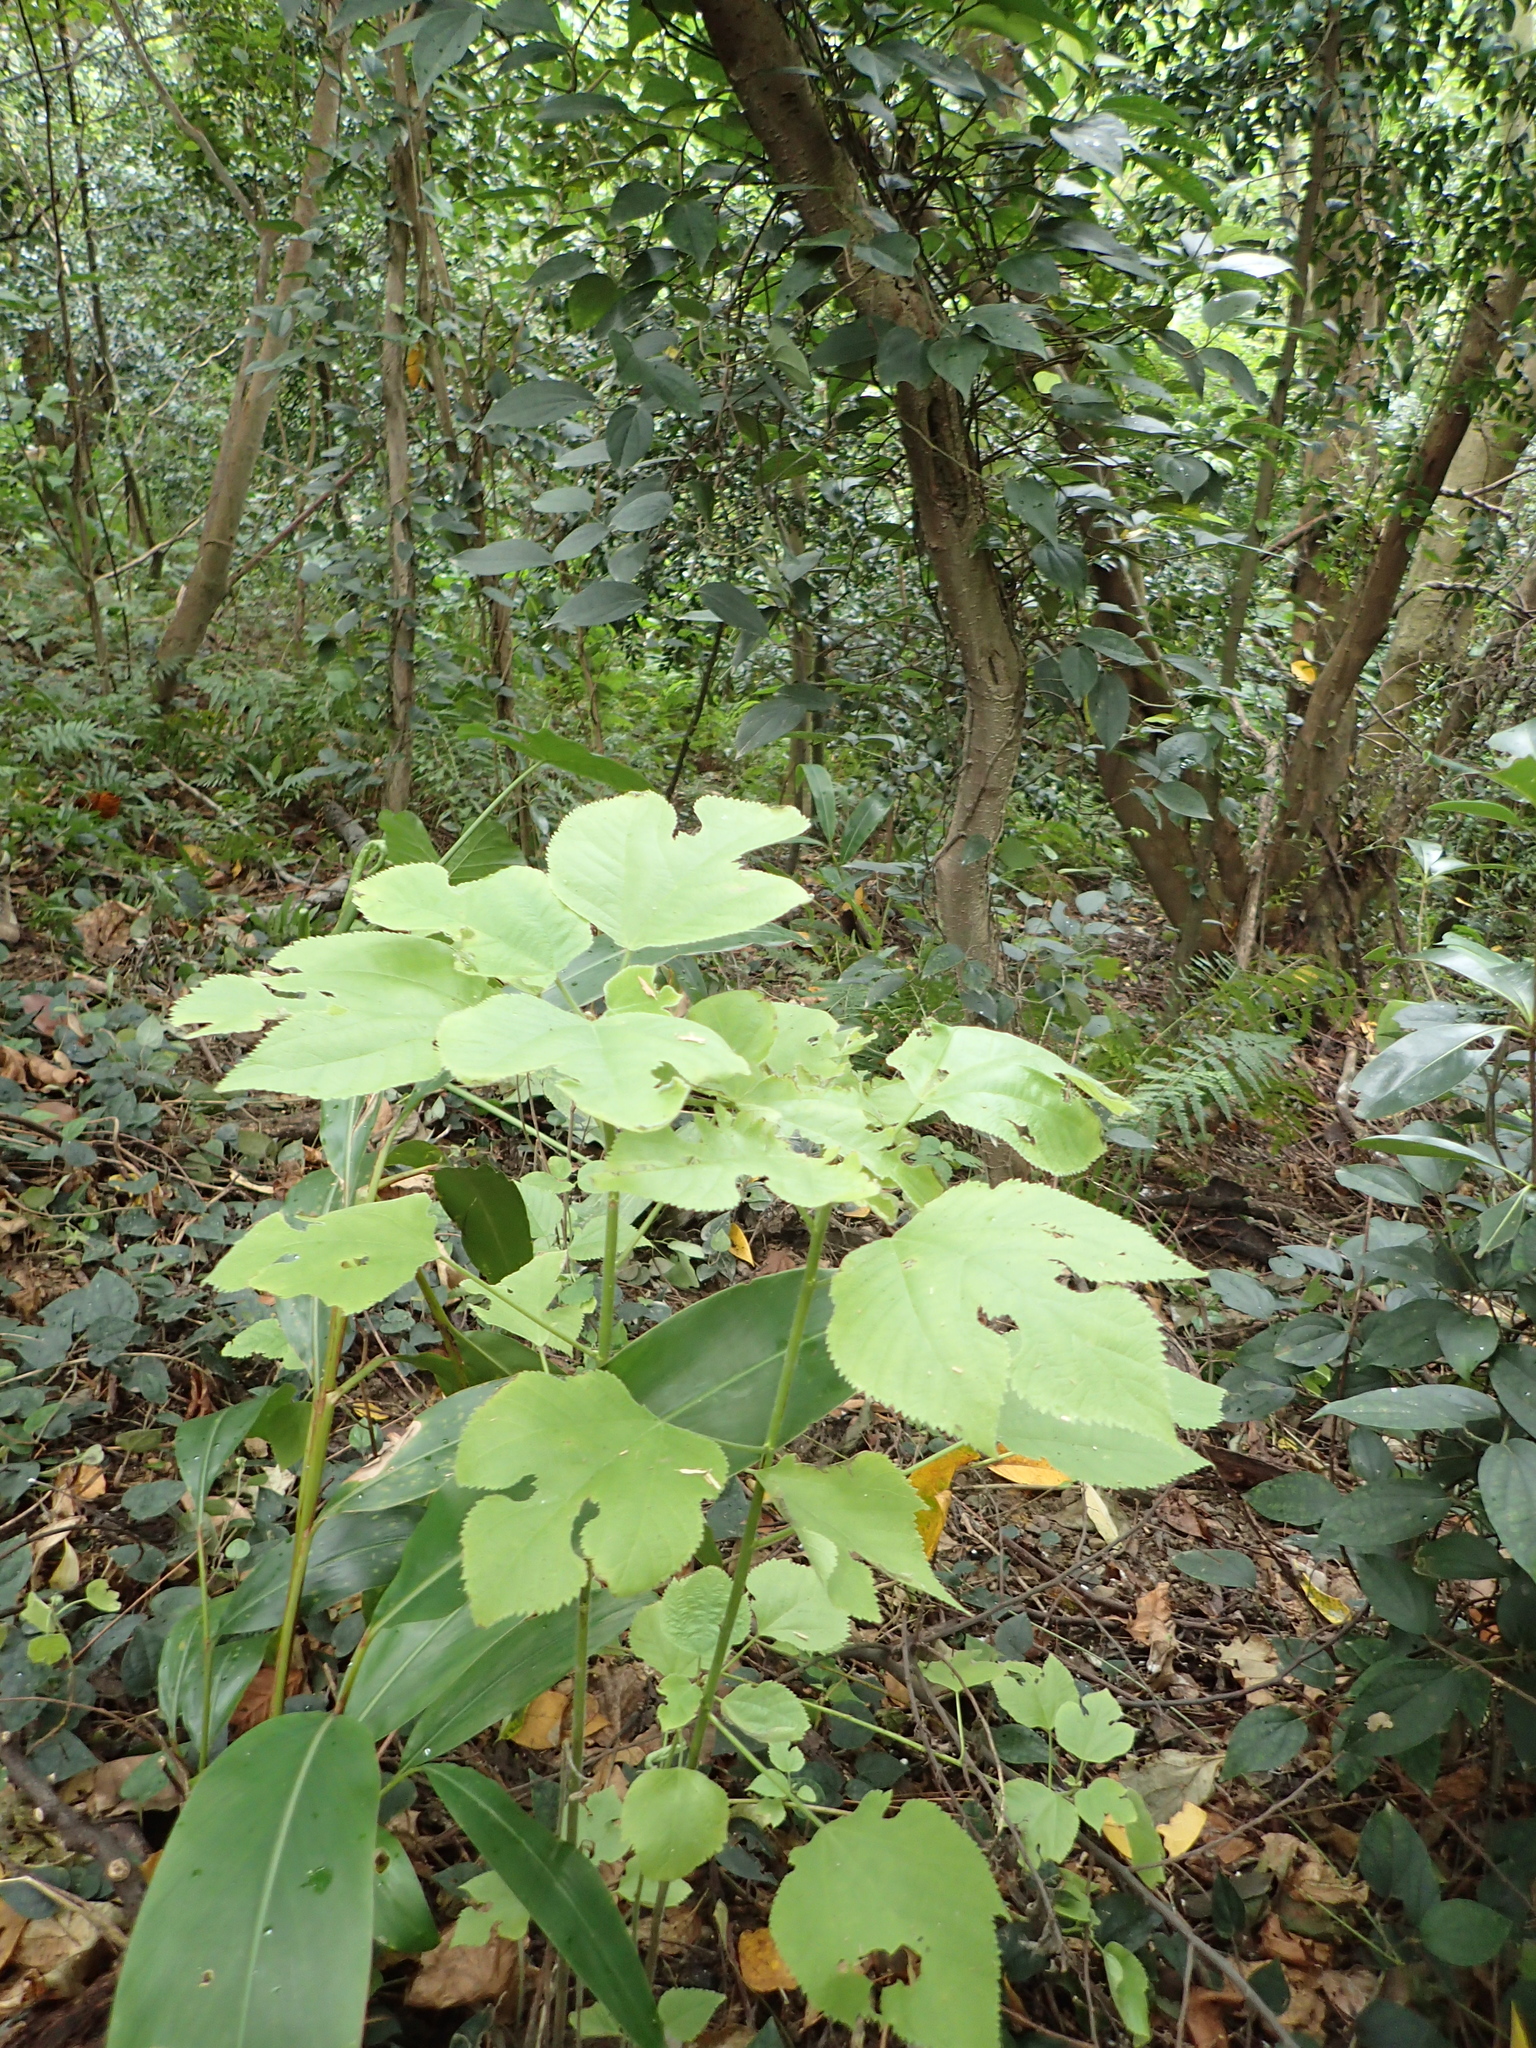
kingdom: Plantae
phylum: Tracheophyta
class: Magnoliopsida
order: Rosales
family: Moraceae
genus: Broussonetia
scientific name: Broussonetia papyrifera
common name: Paper mulberry
